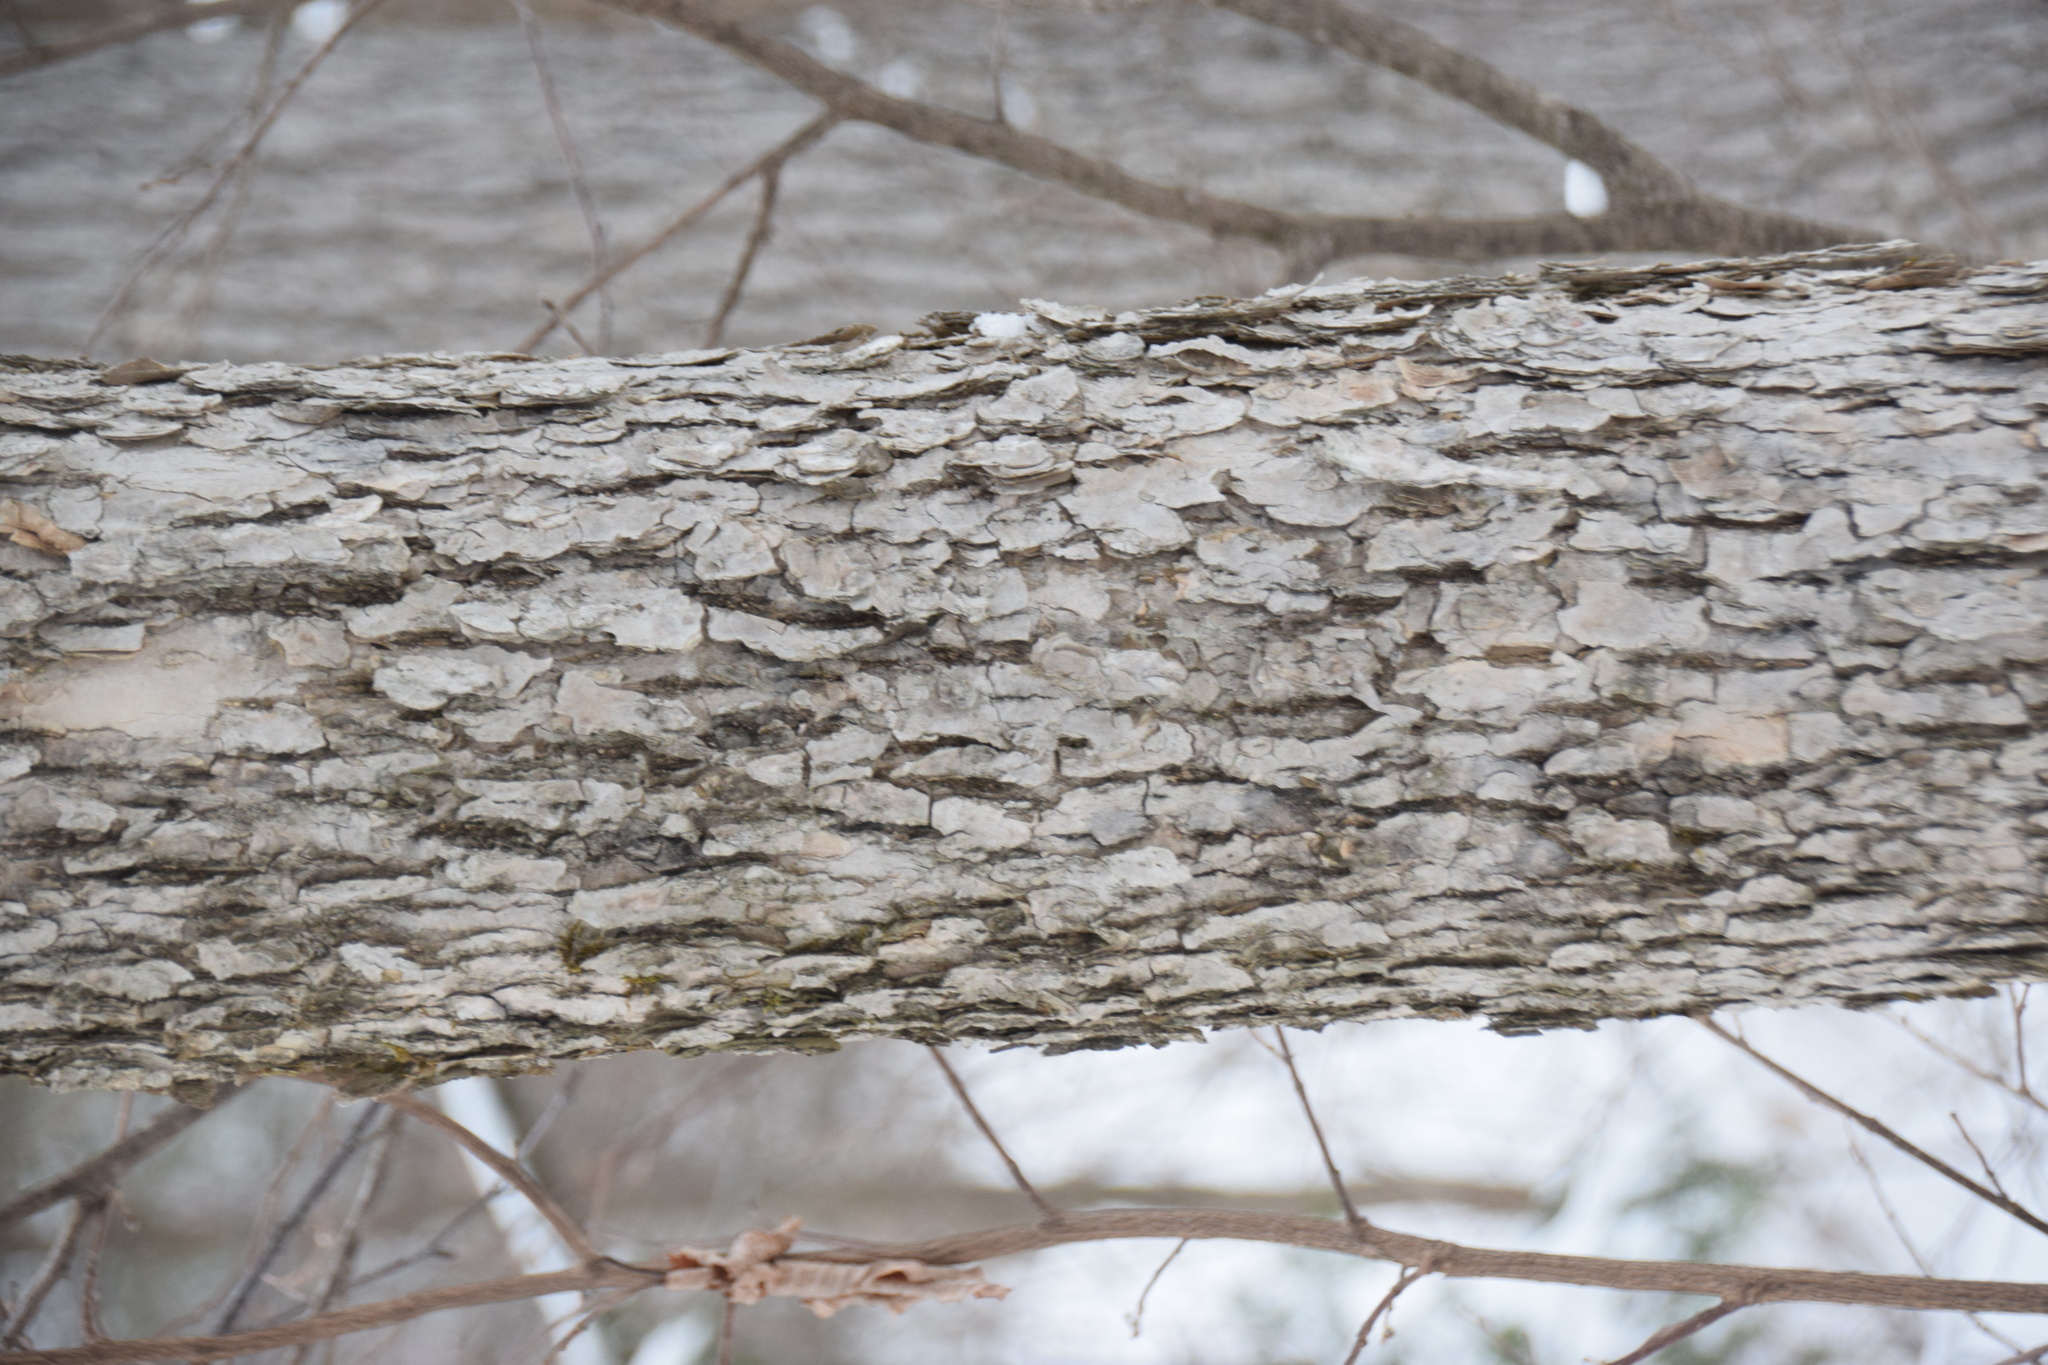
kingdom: Plantae
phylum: Tracheophyta
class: Magnoliopsida
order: Lamiales
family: Oleaceae
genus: Fraxinus
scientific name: Fraxinus nigra
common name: Black ash
